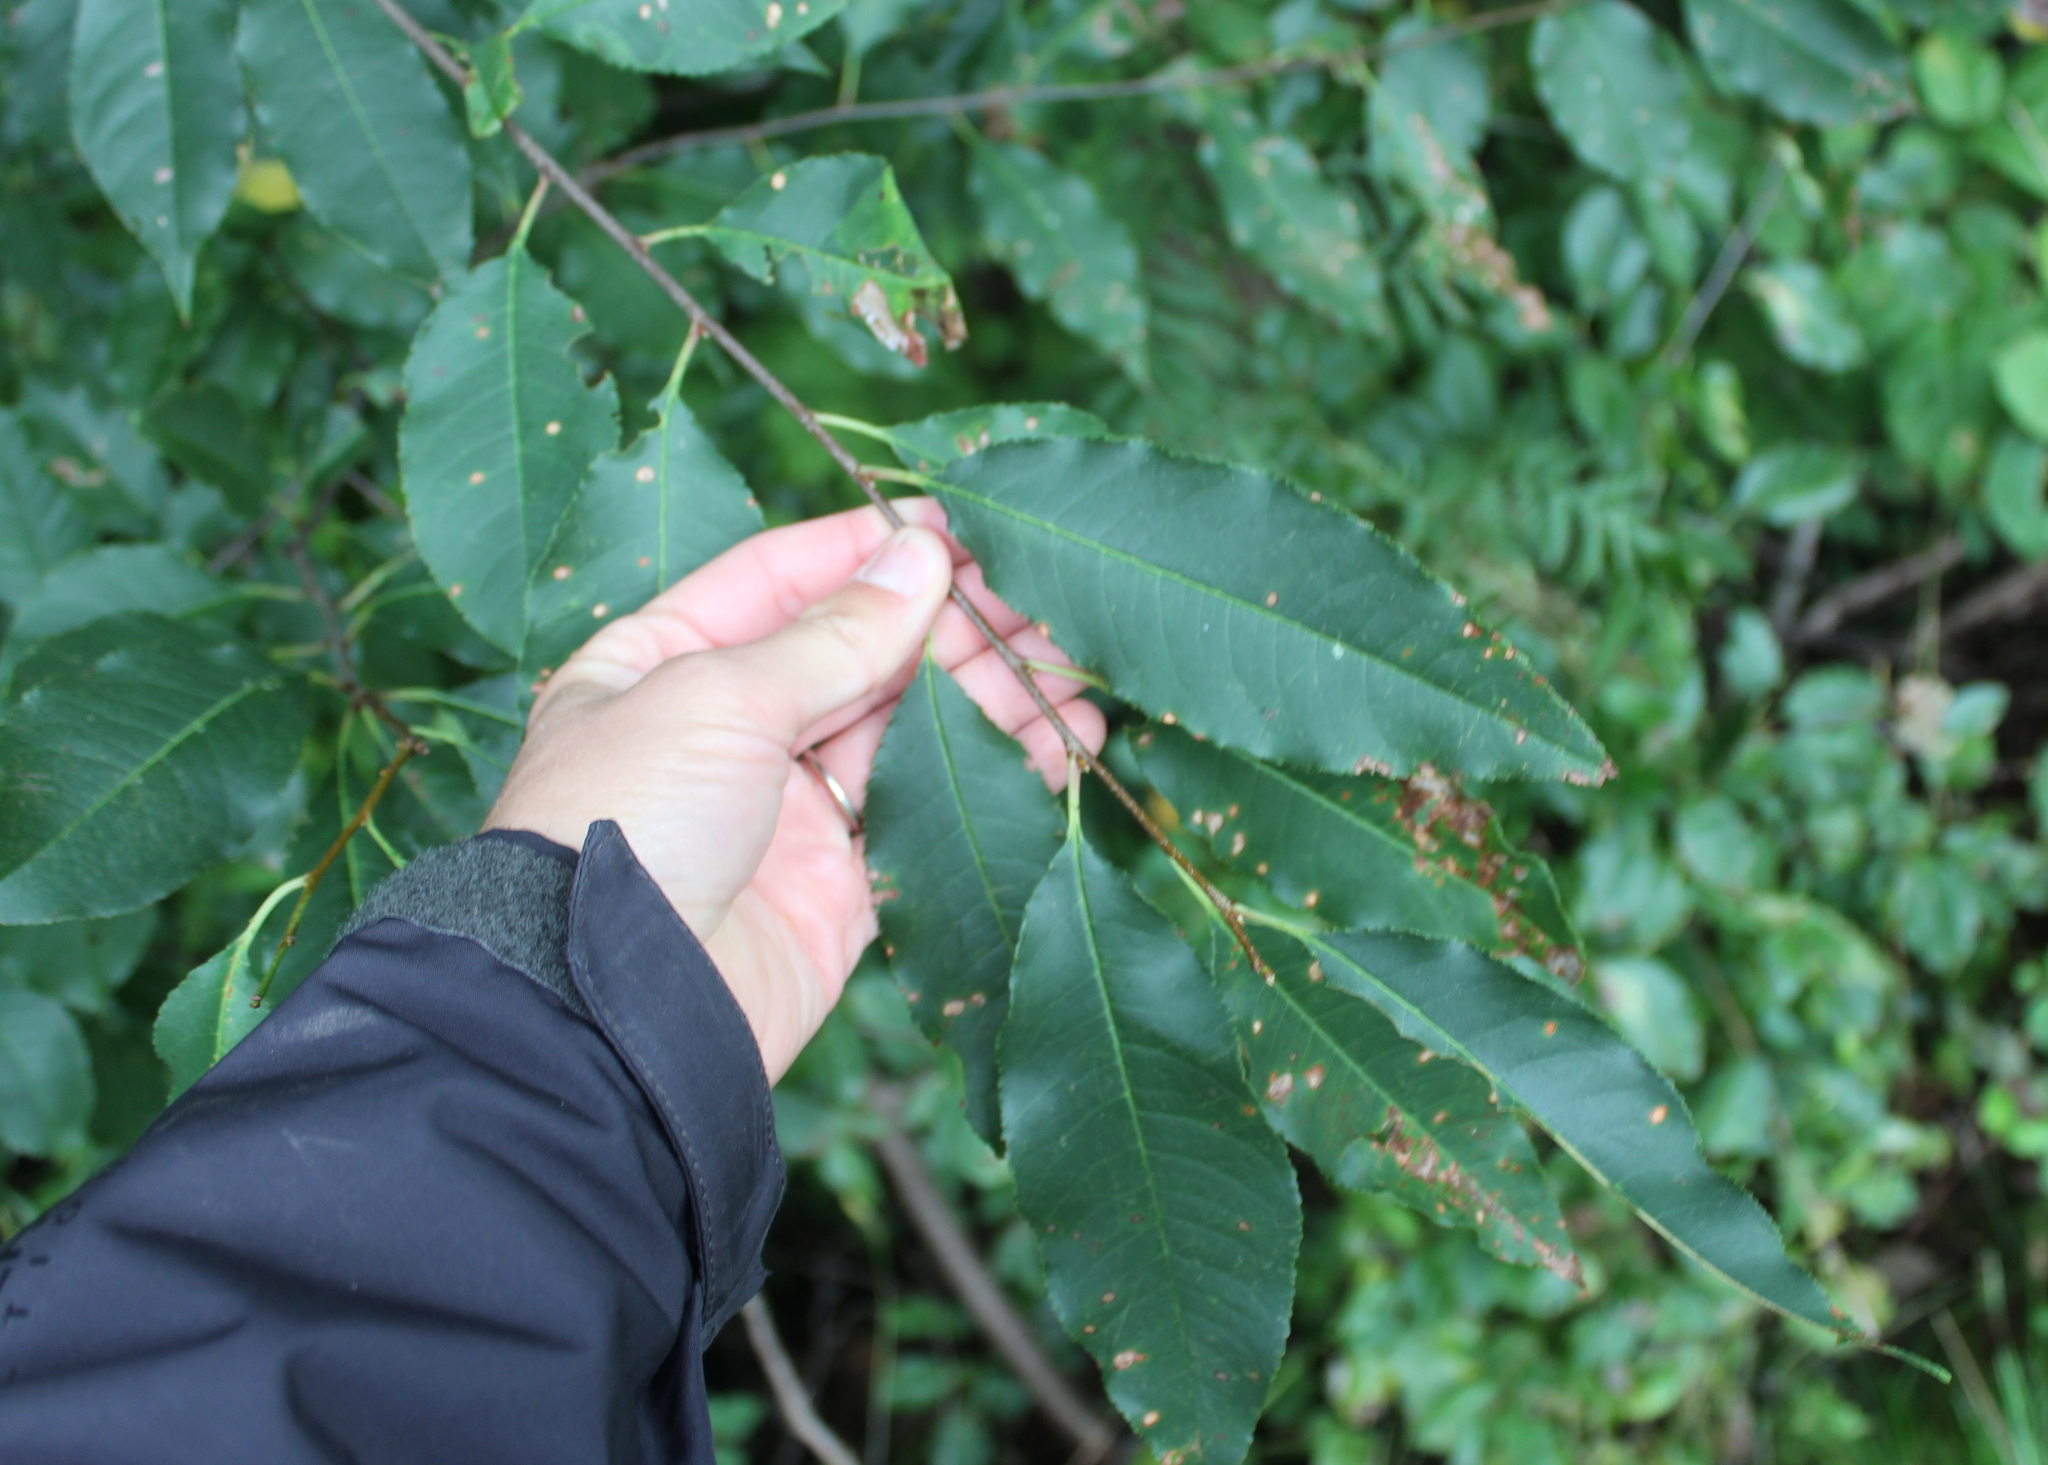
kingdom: Plantae
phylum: Tracheophyta
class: Magnoliopsida
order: Rosales
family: Rosaceae
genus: Prunus
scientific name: Prunus serotina
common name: Black cherry
